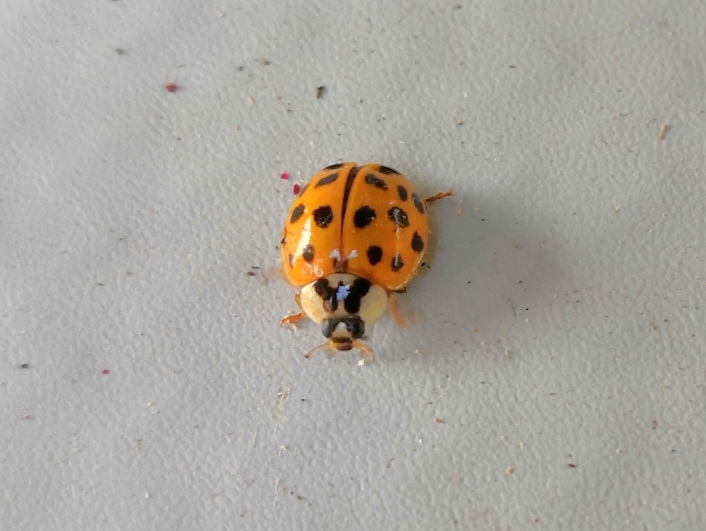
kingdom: Animalia
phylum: Arthropoda
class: Insecta
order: Coleoptera
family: Coccinellidae
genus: Harmonia
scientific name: Harmonia axyridis
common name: Harlequin ladybird
